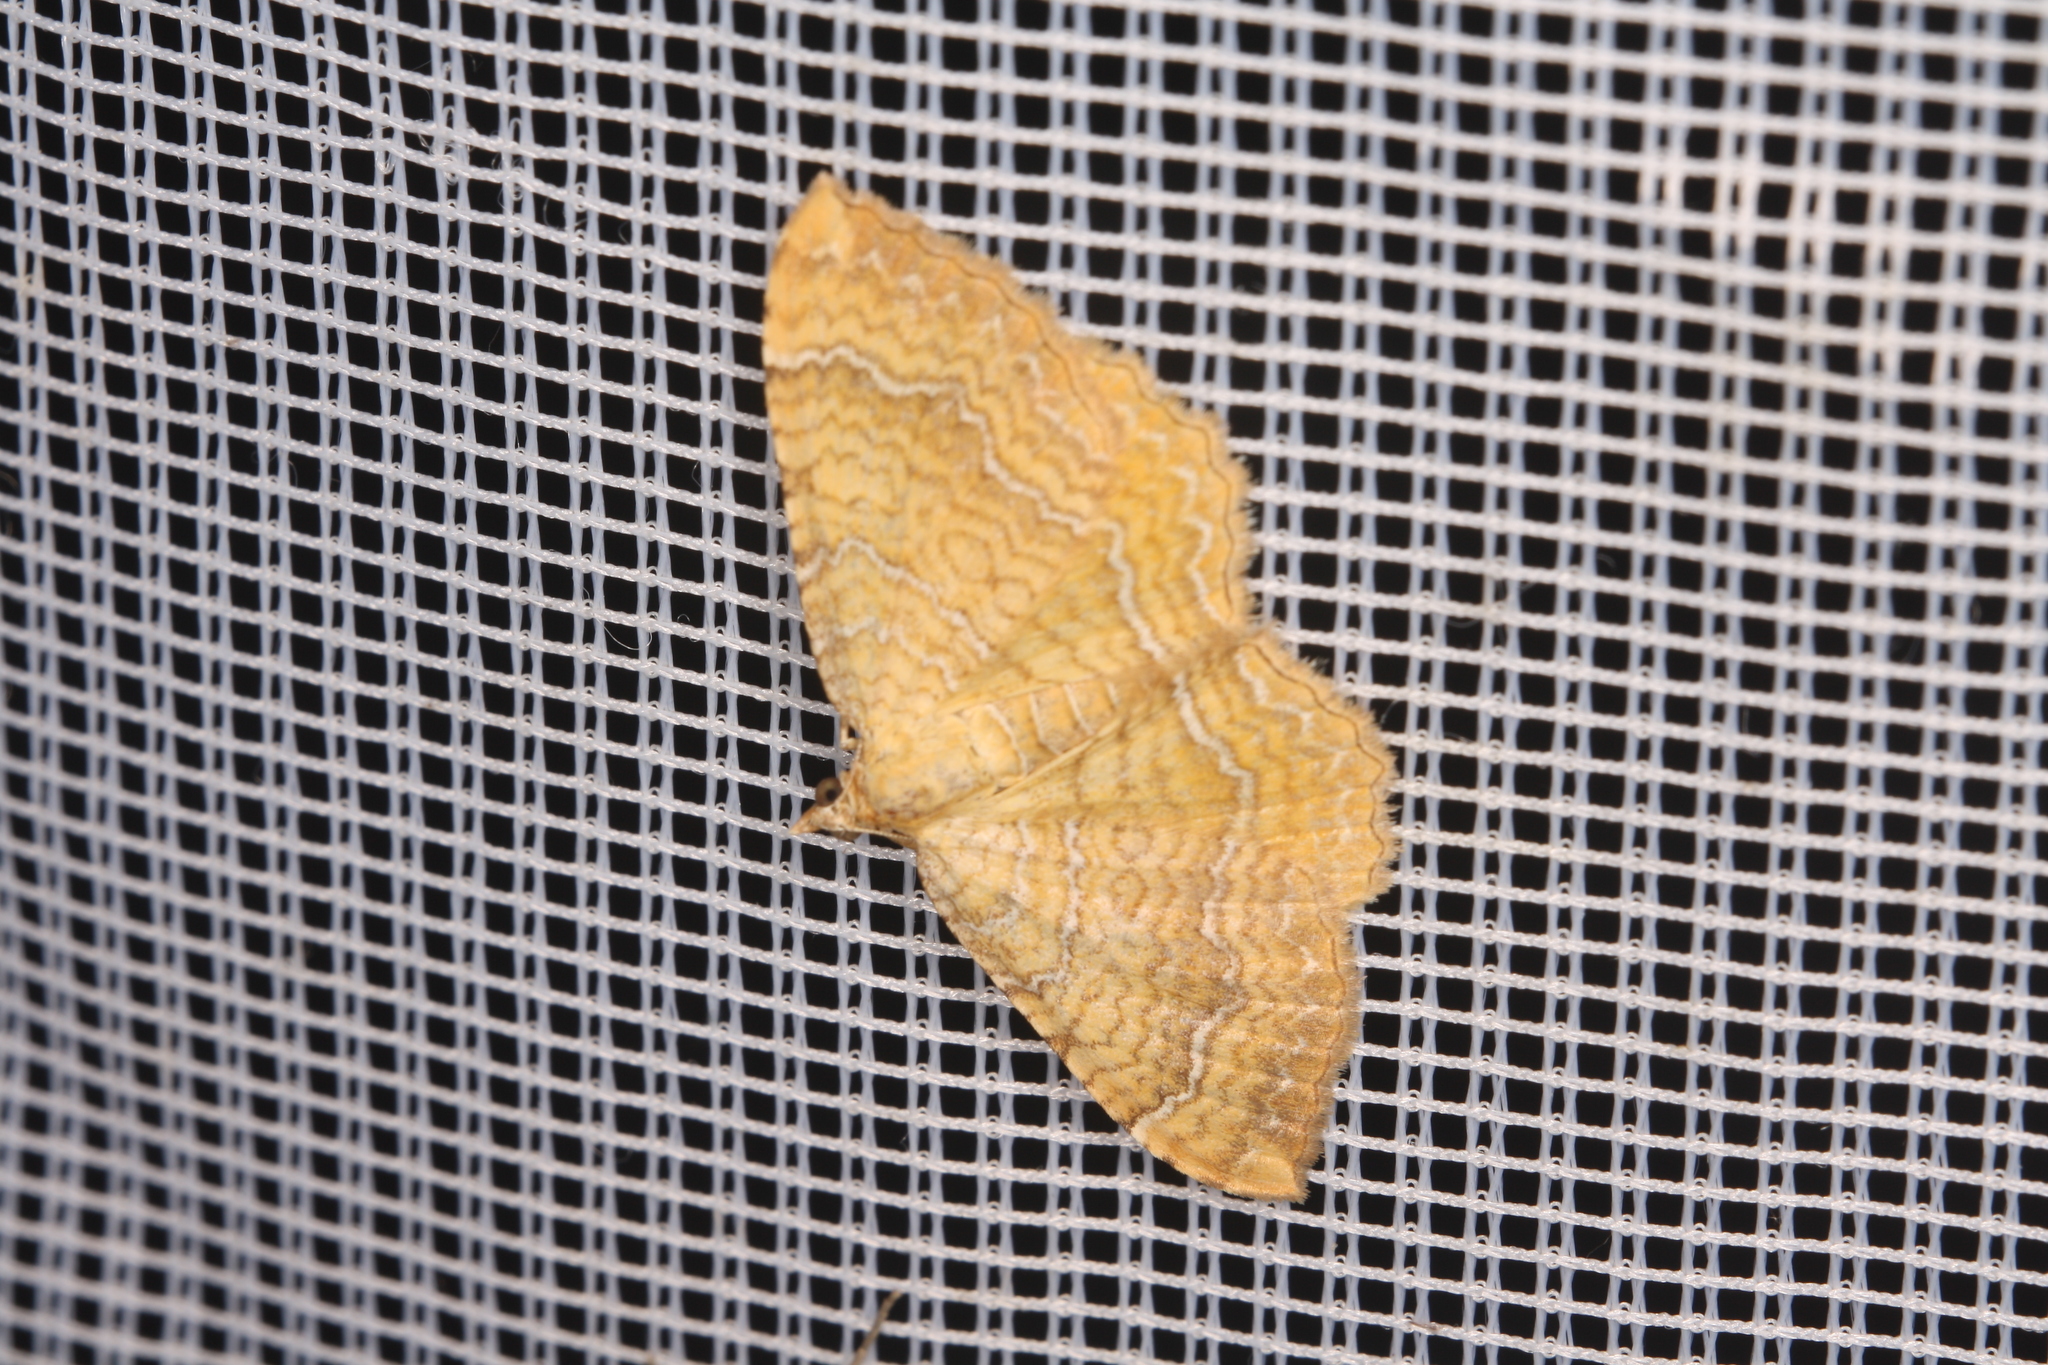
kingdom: Animalia
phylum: Arthropoda
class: Insecta
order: Lepidoptera
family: Geometridae
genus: Camptogramma
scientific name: Camptogramma bilineata
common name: Yellow shell
